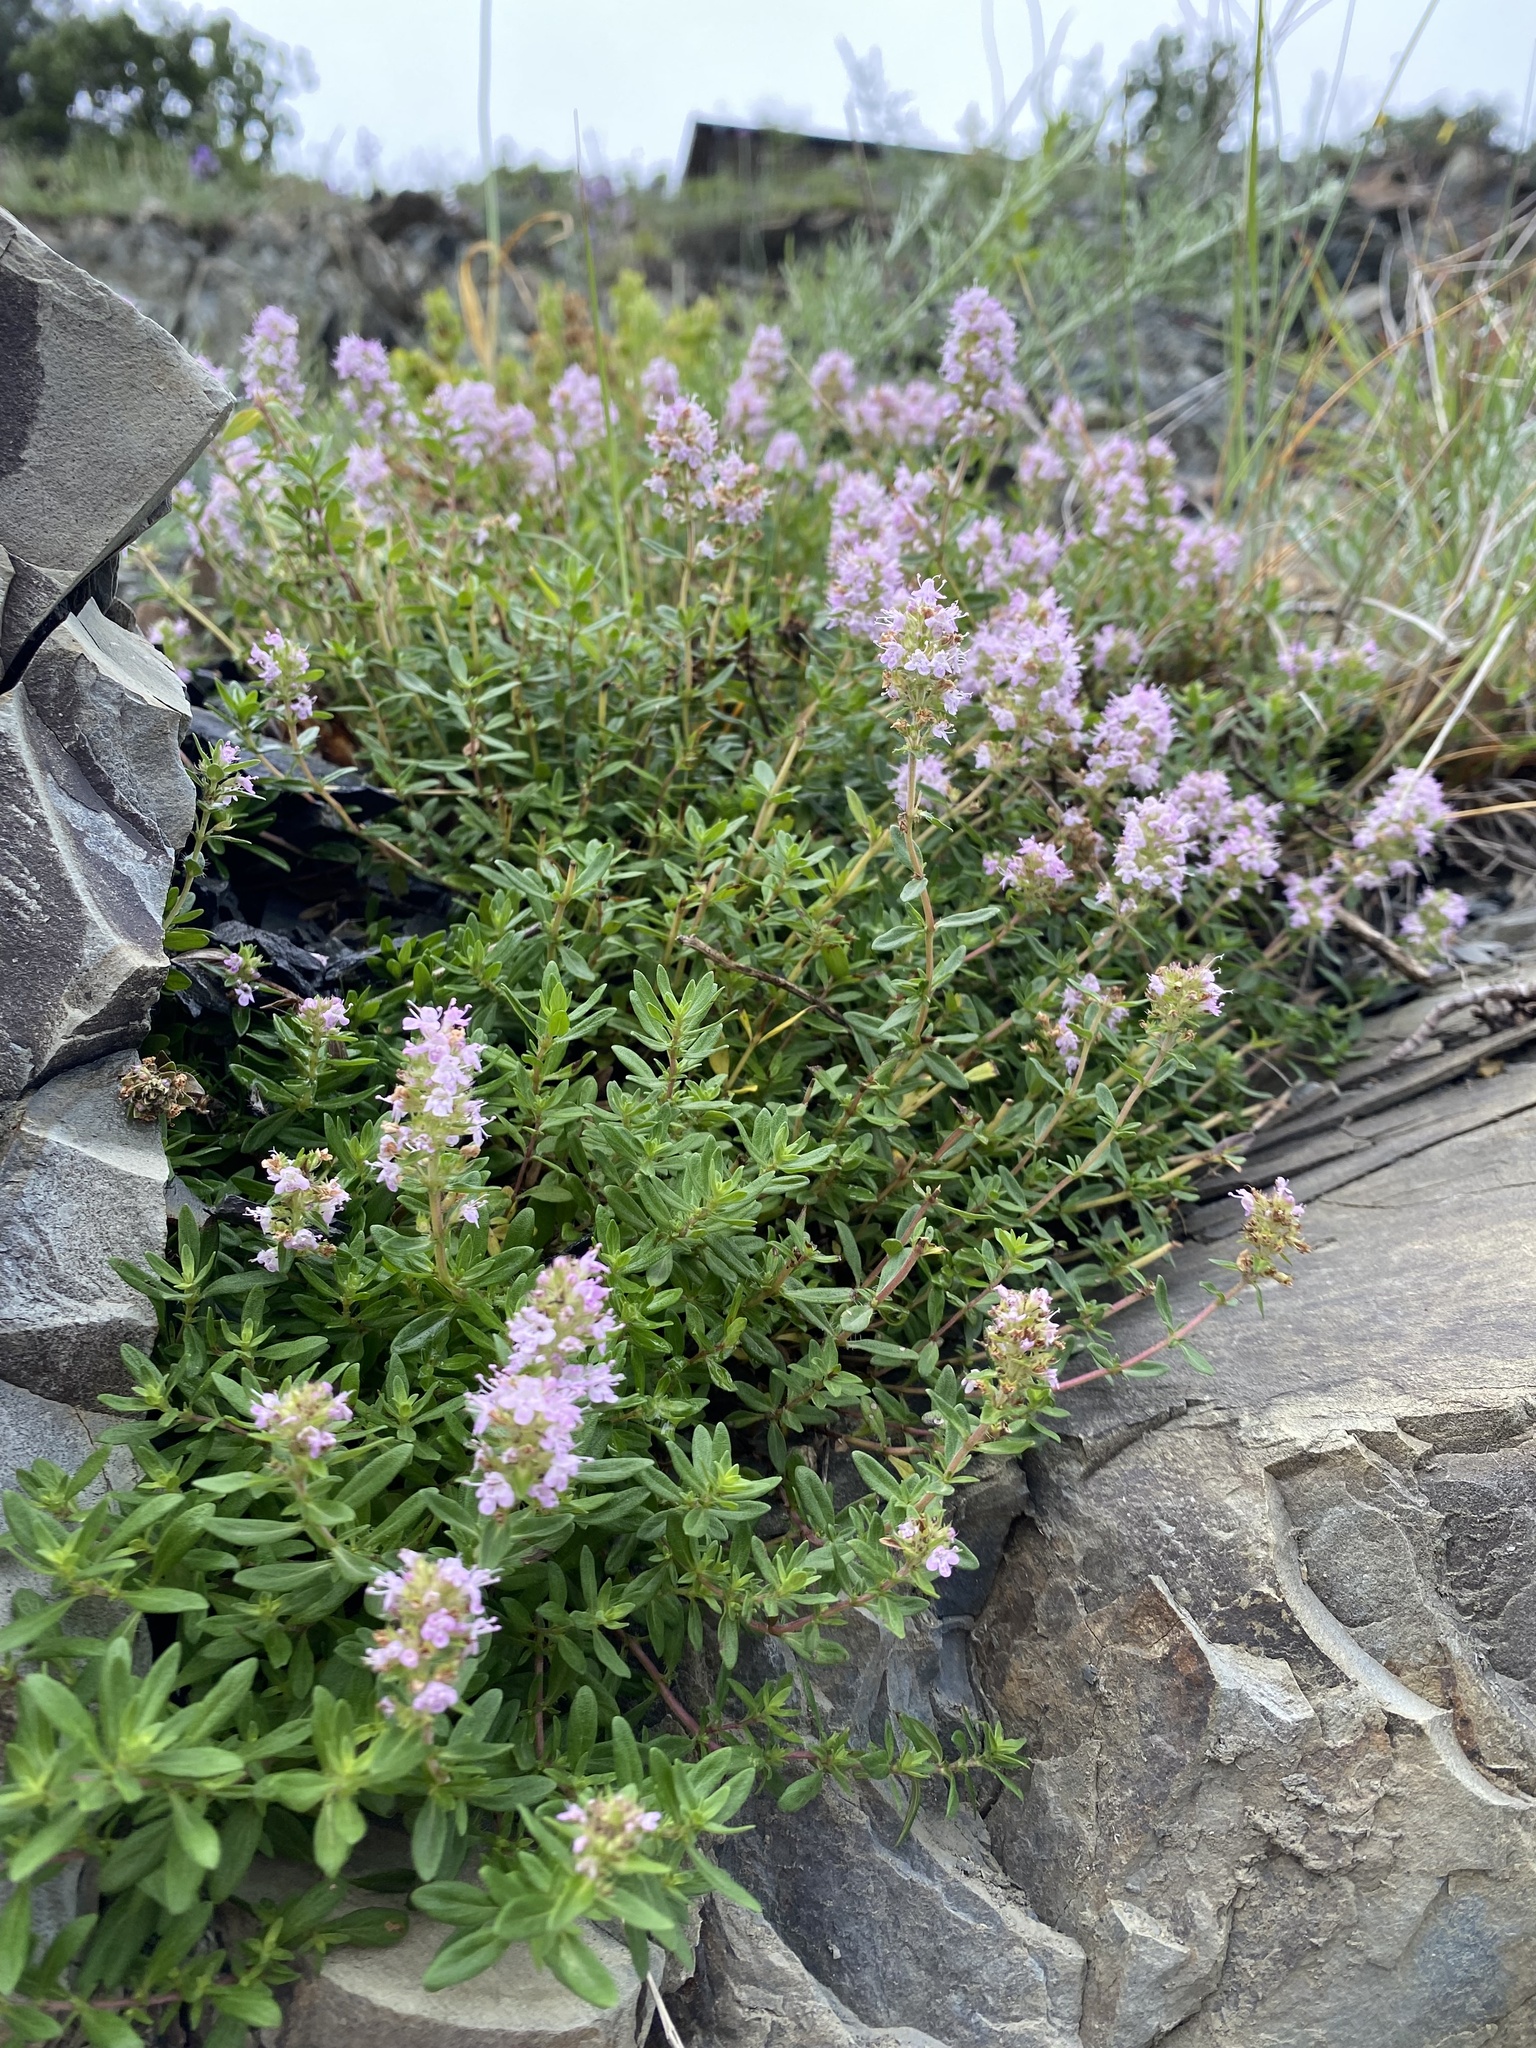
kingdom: Plantae
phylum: Tracheophyta
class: Magnoliopsida
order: Lamiales
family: Lamiaceae
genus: Thymus
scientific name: Thymus pannonicus
